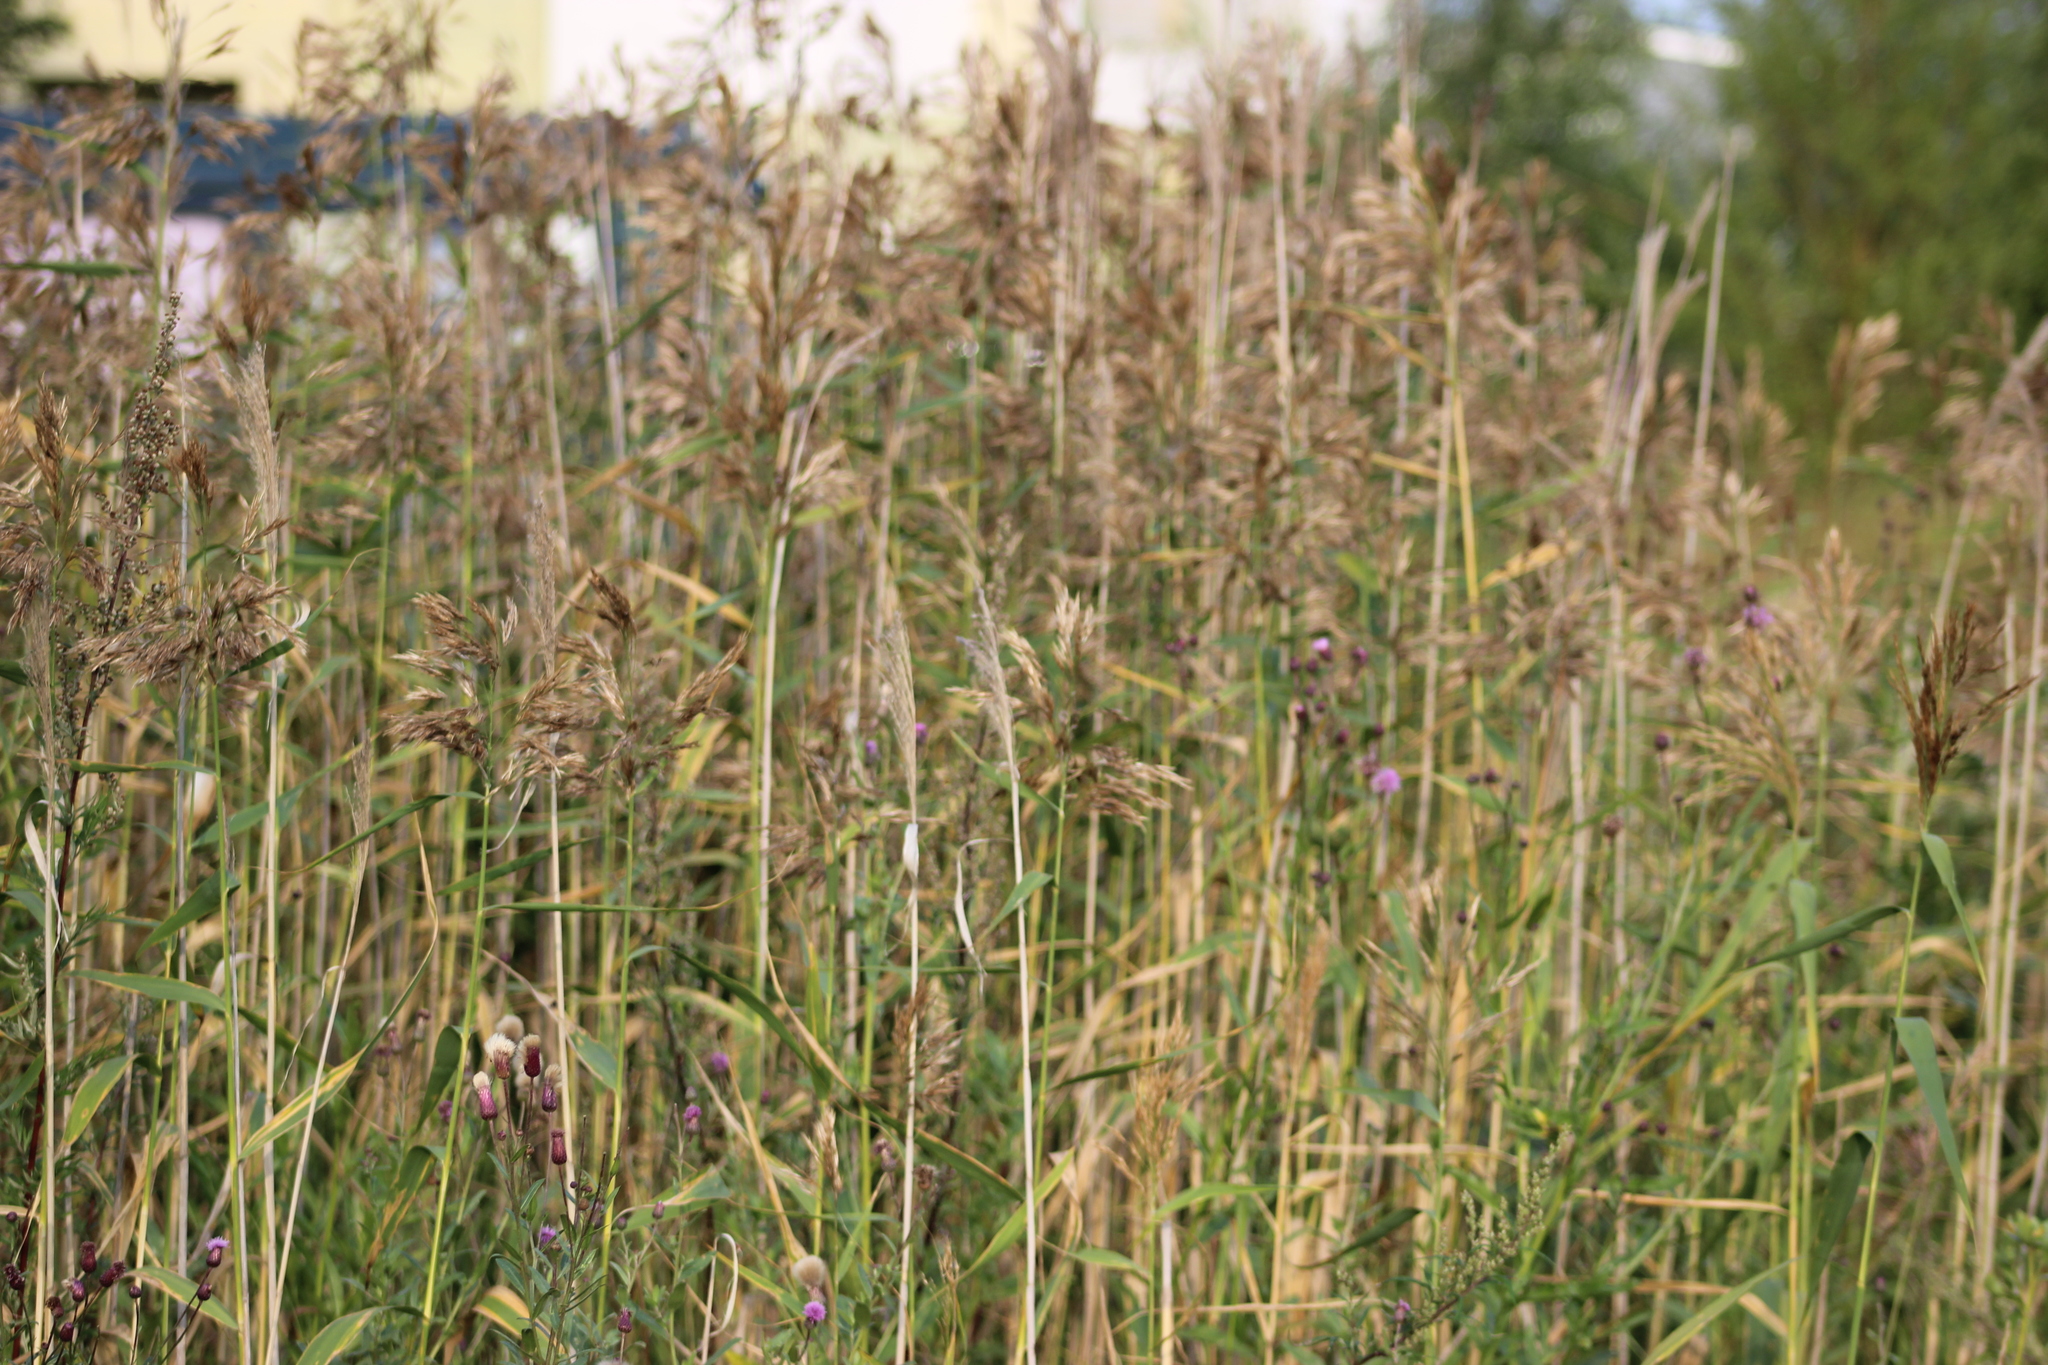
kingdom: Plantae
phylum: Tracheophyta
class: Liliopsida
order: Poales
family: Poaceae
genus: Phragmites
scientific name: Phragmites australis
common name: Common reed
